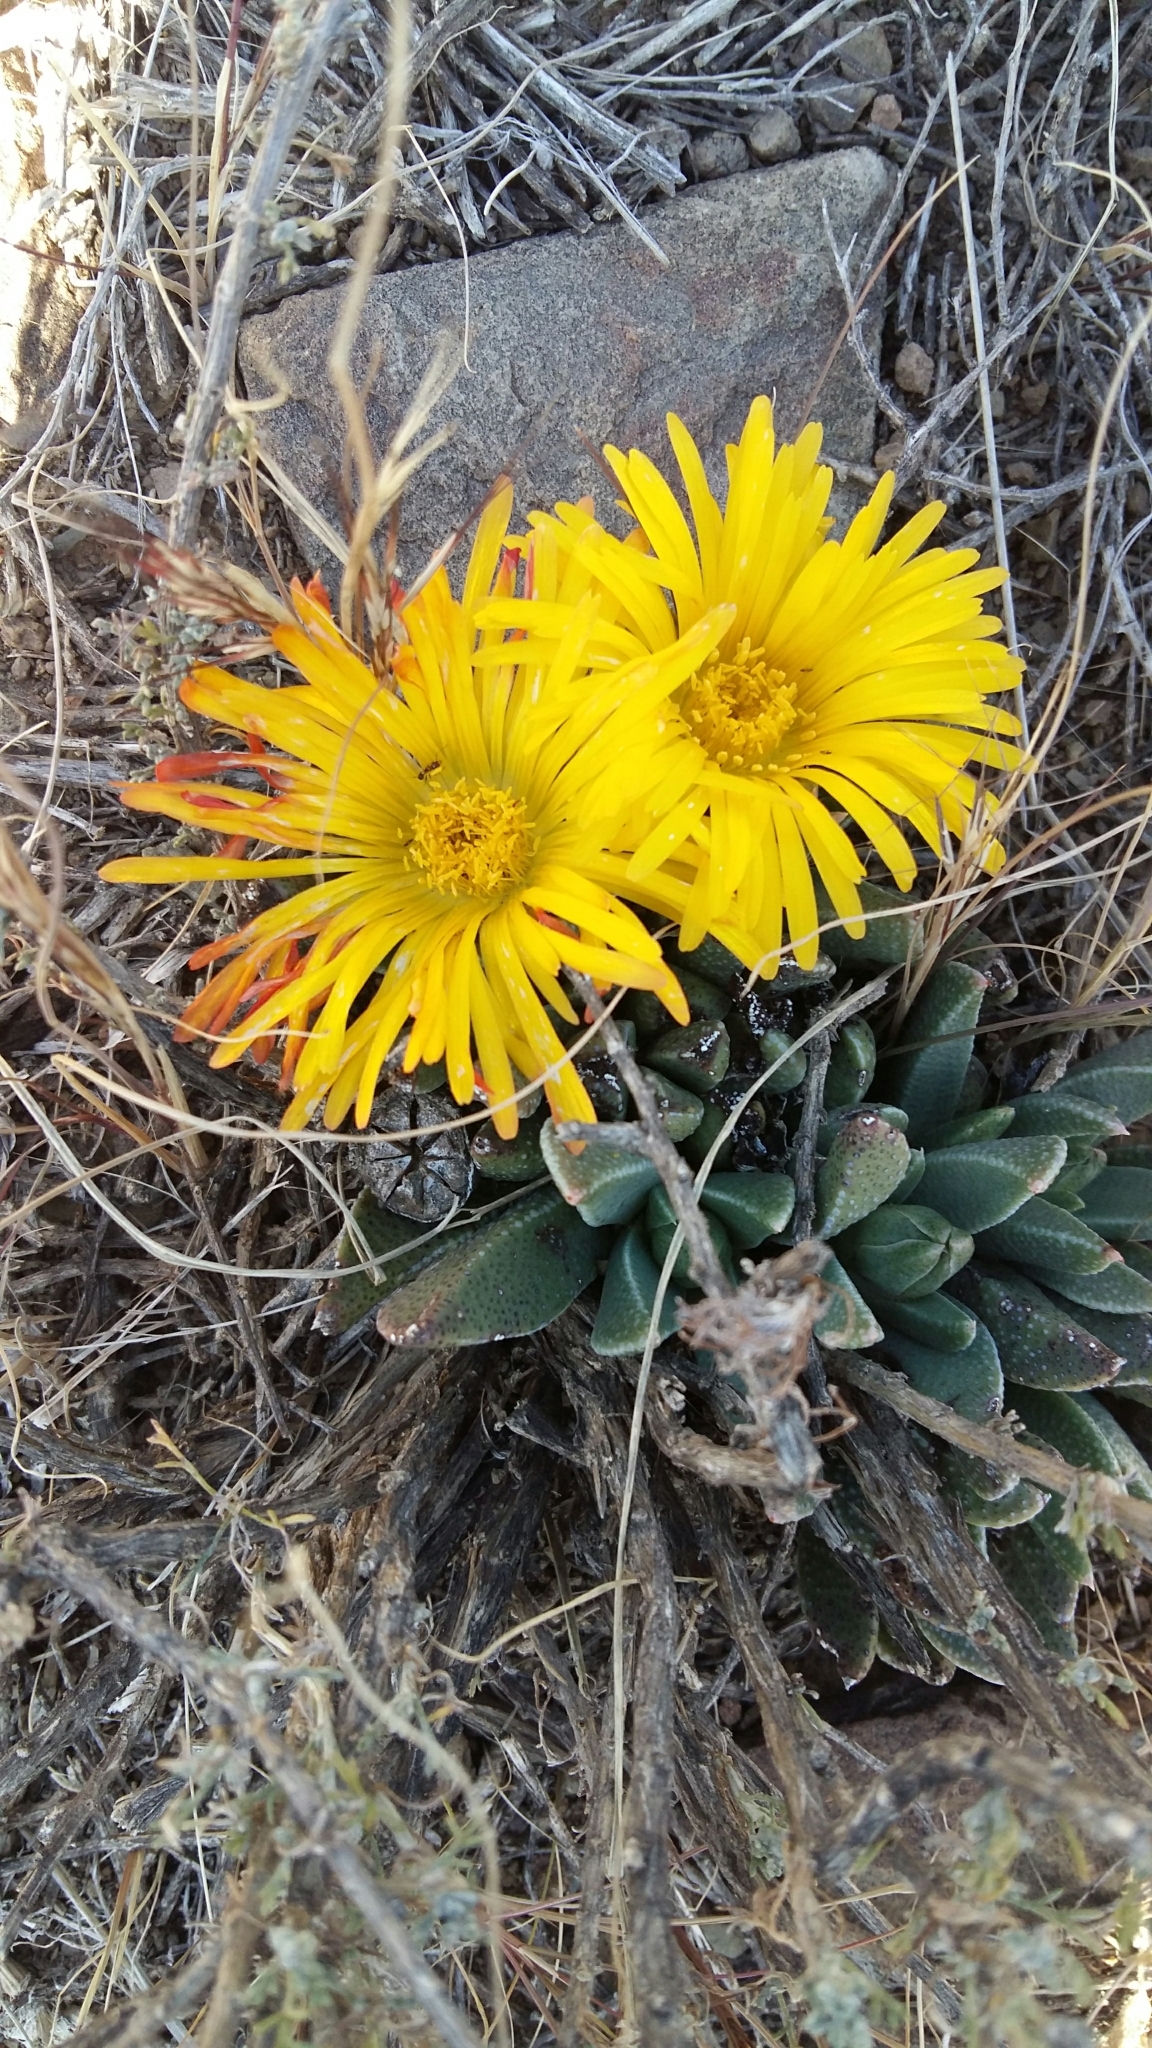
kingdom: Plantae
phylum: Tracheophyta
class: Magnoliopsida
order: Caryophyllales
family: Aizoaceae
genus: Rabiea
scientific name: Rabiea albinota
